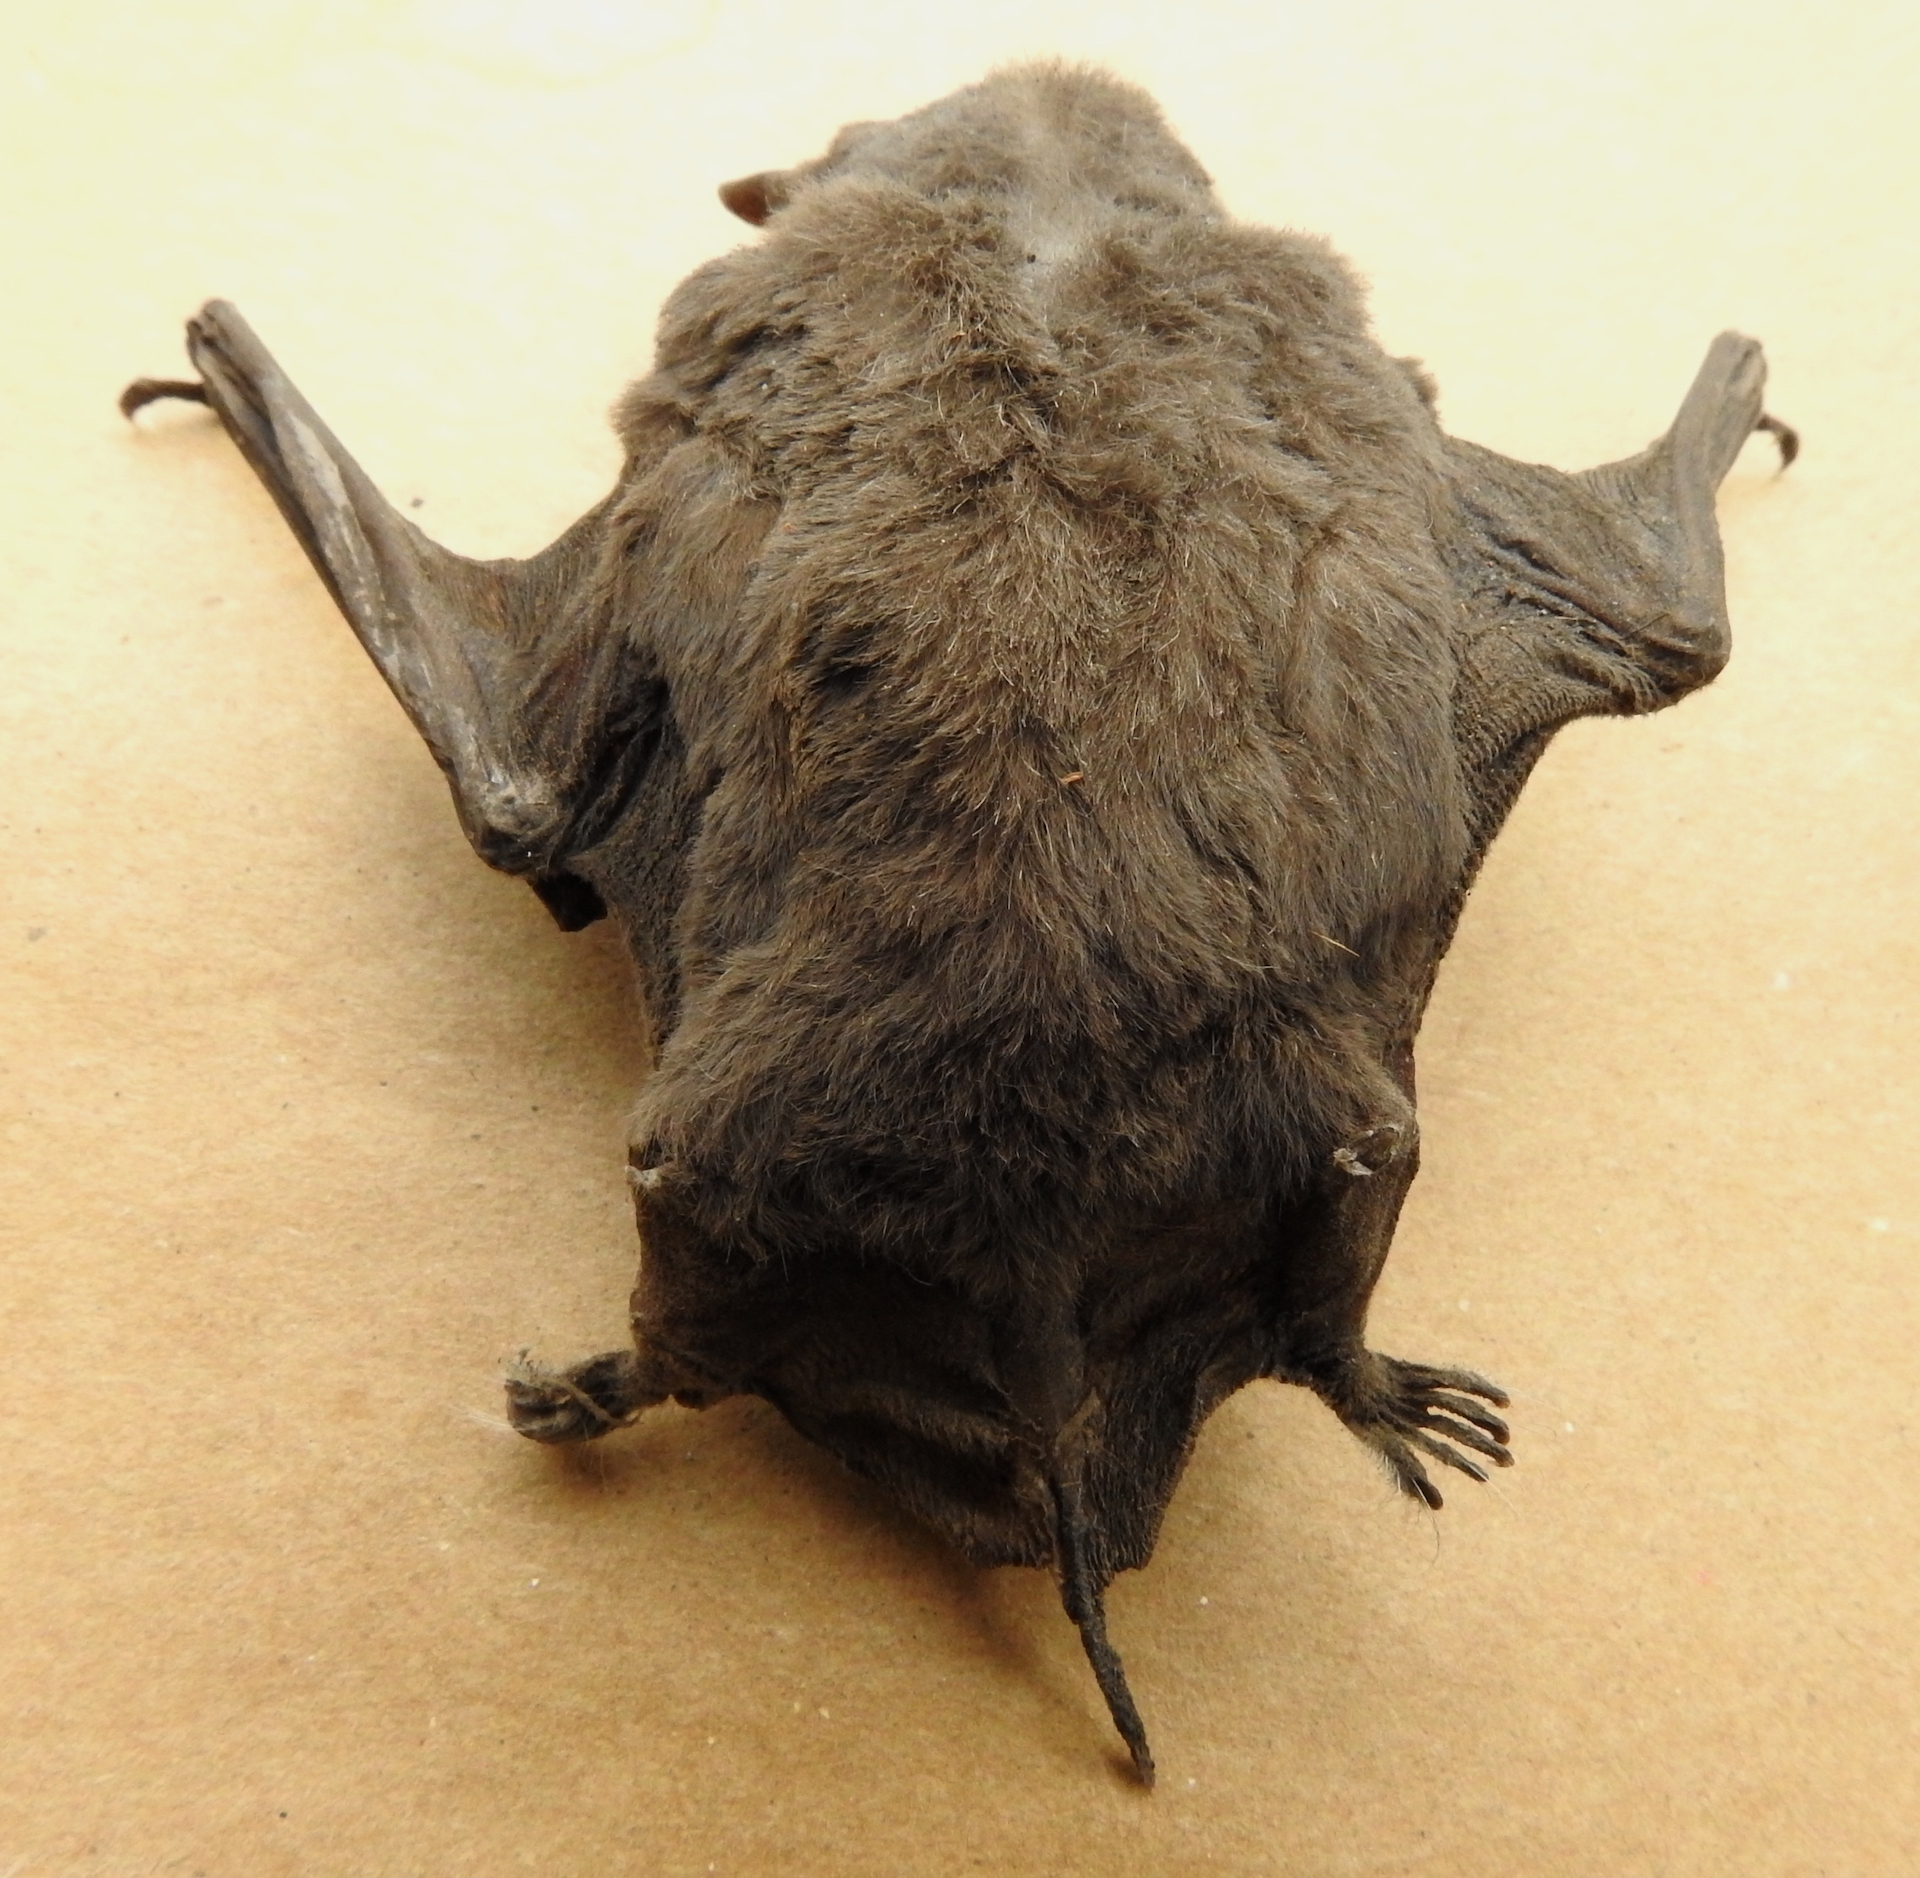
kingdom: Animalia
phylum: Chordata
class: Mammalia
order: Chiroptera
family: Molossidae
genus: Tadarida
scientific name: Tadarida brasiliensis
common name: Mexican free-tailed bat
